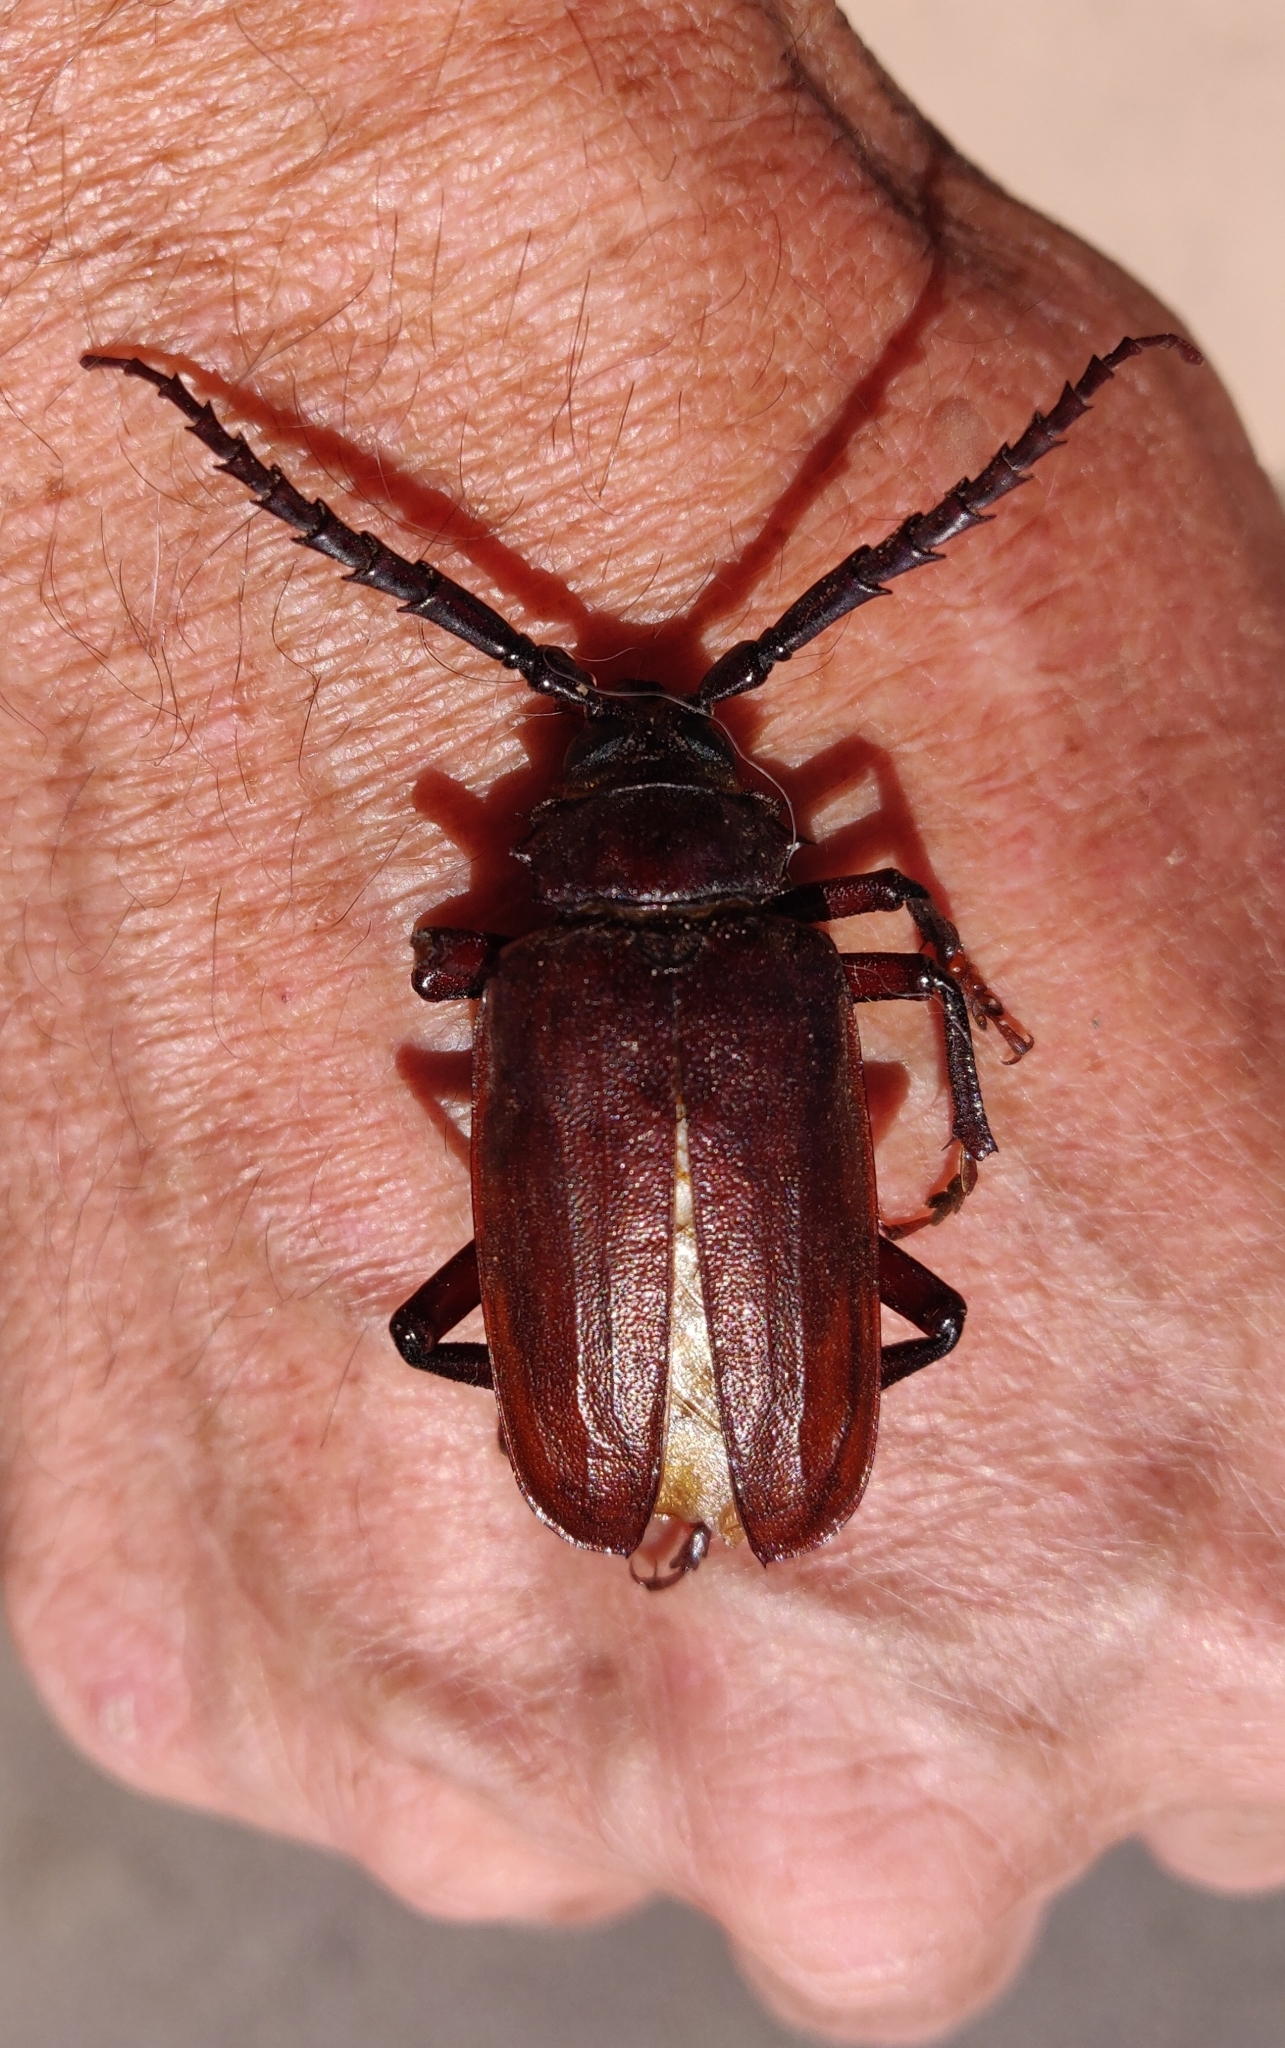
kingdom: Animalia
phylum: Arthropoda
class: Insecta
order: Coleoptera
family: Cerambycidae
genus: Prionus
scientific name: Prionus californicus
